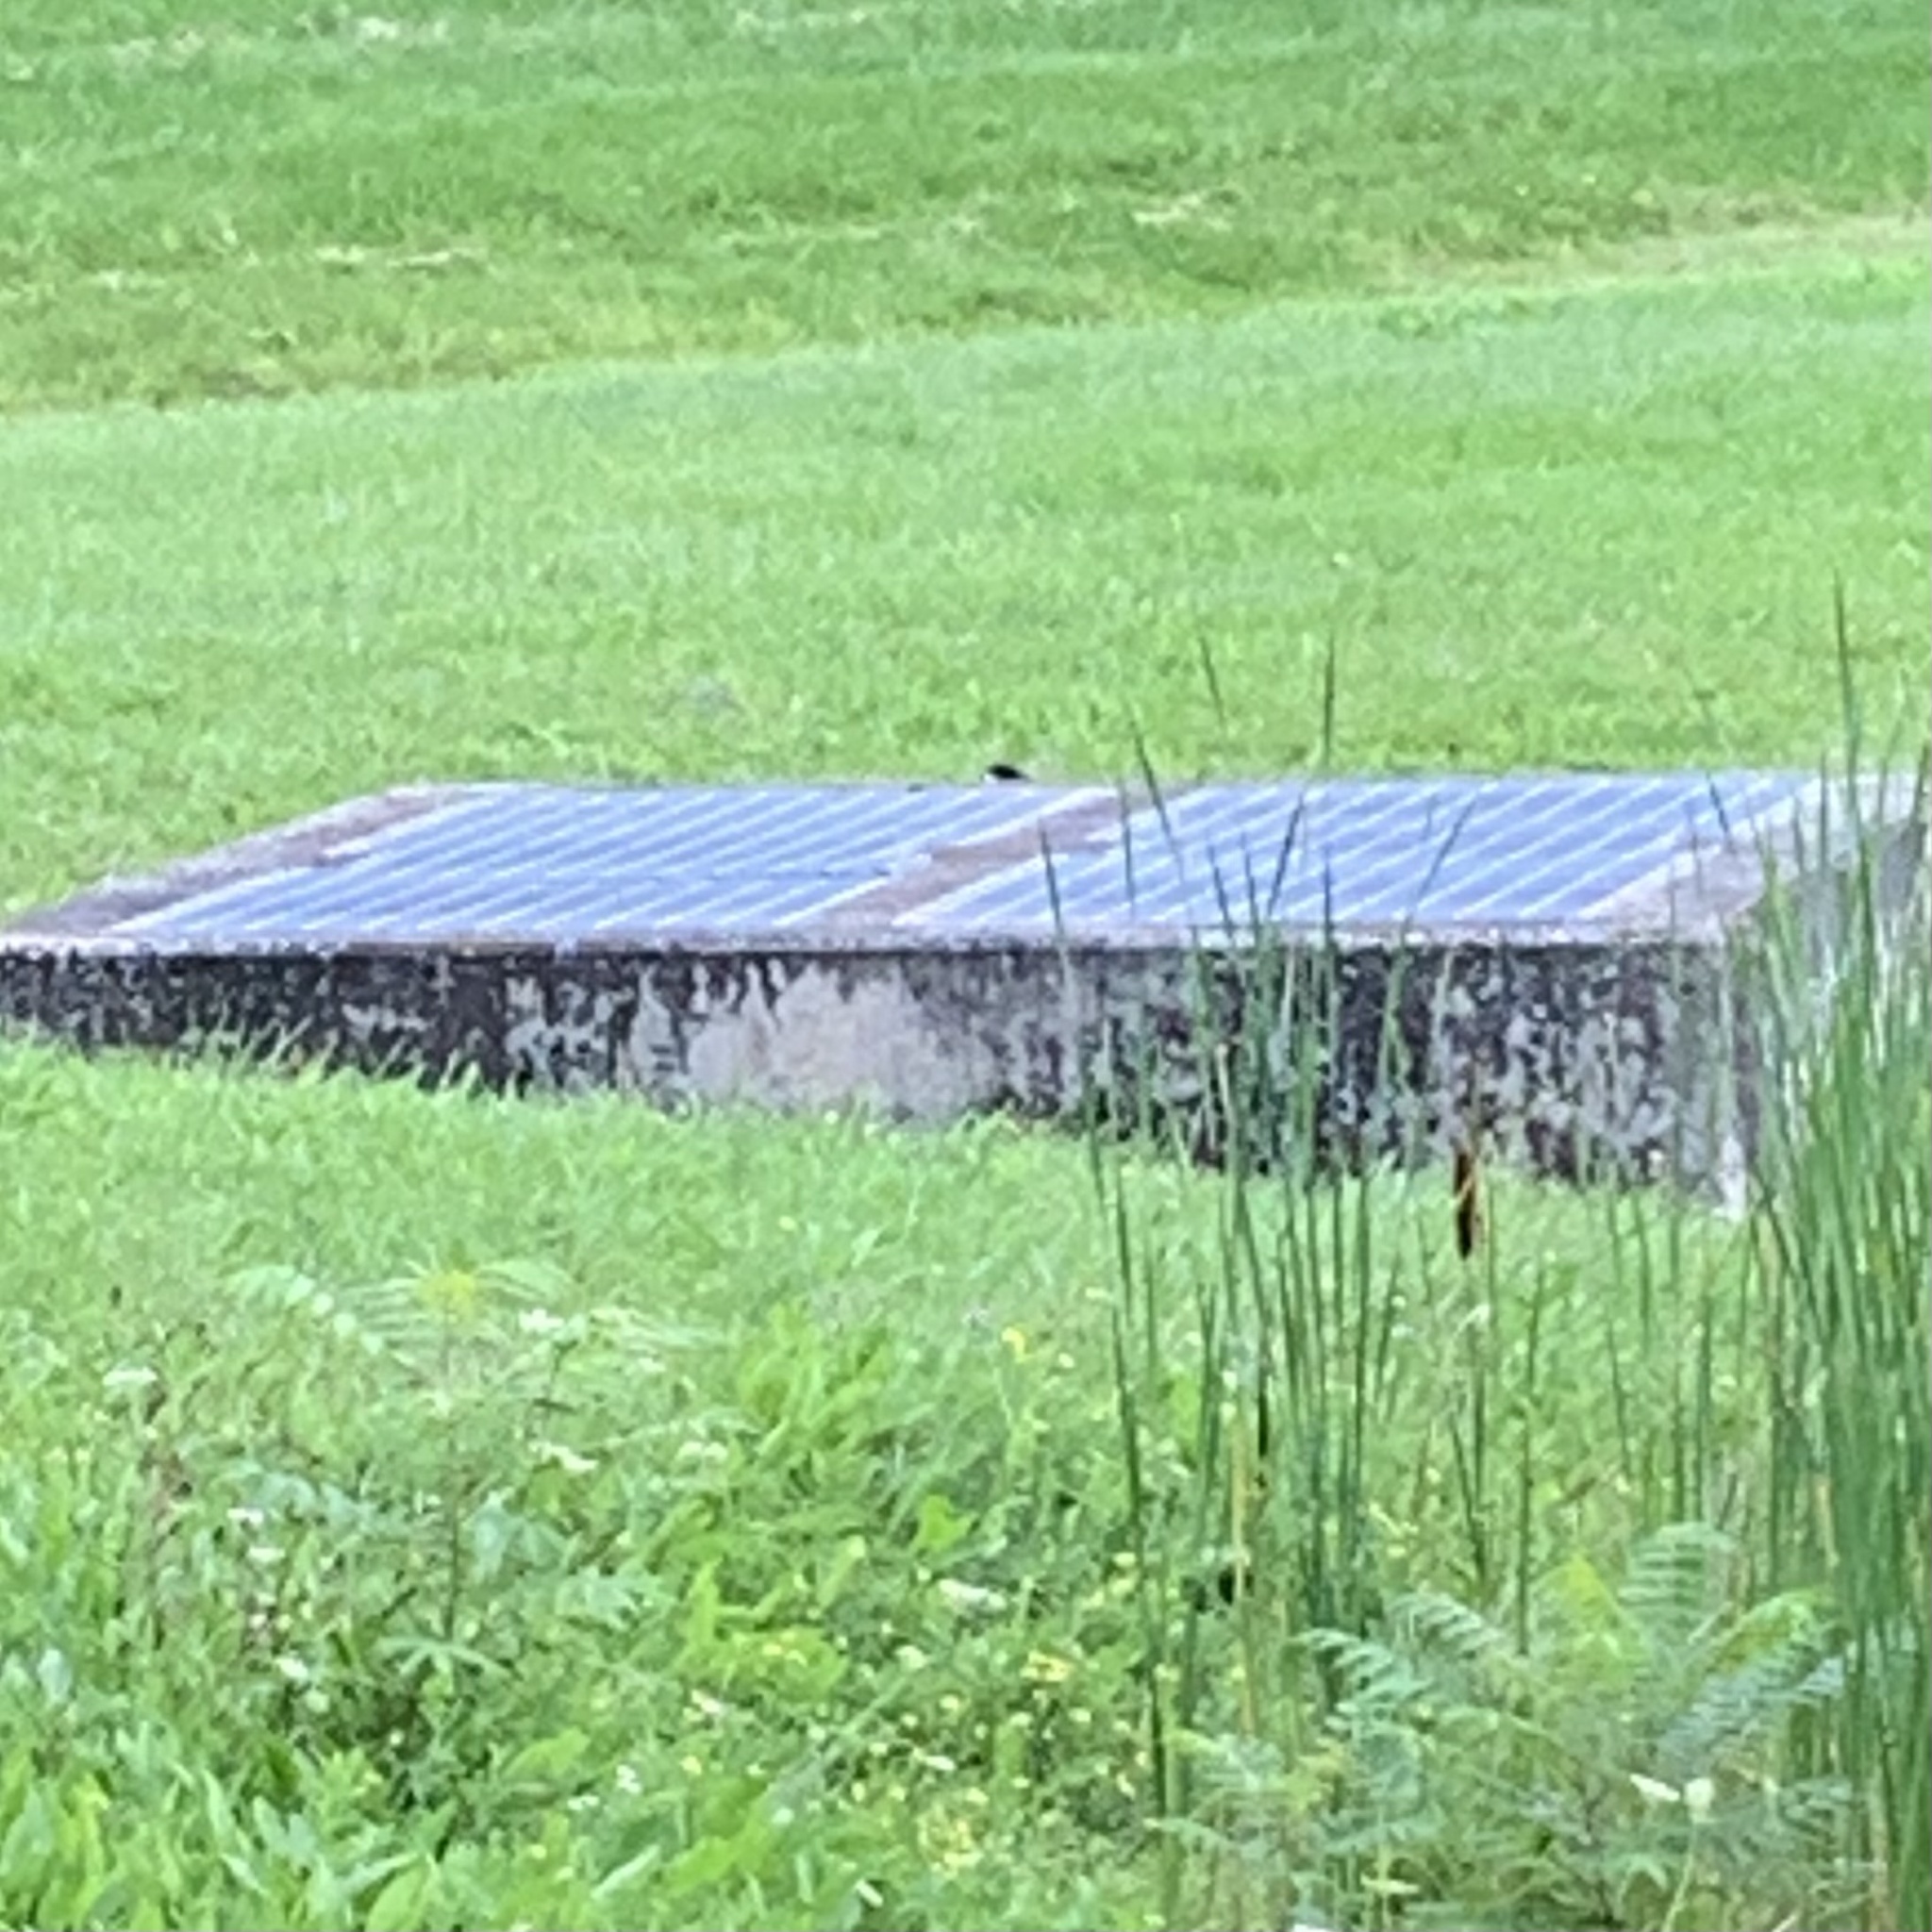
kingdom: Animalia
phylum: Chordata
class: Aves
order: Anseriformes
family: Anatidae
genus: Branta
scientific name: Branta canadensis
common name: Canada goose
